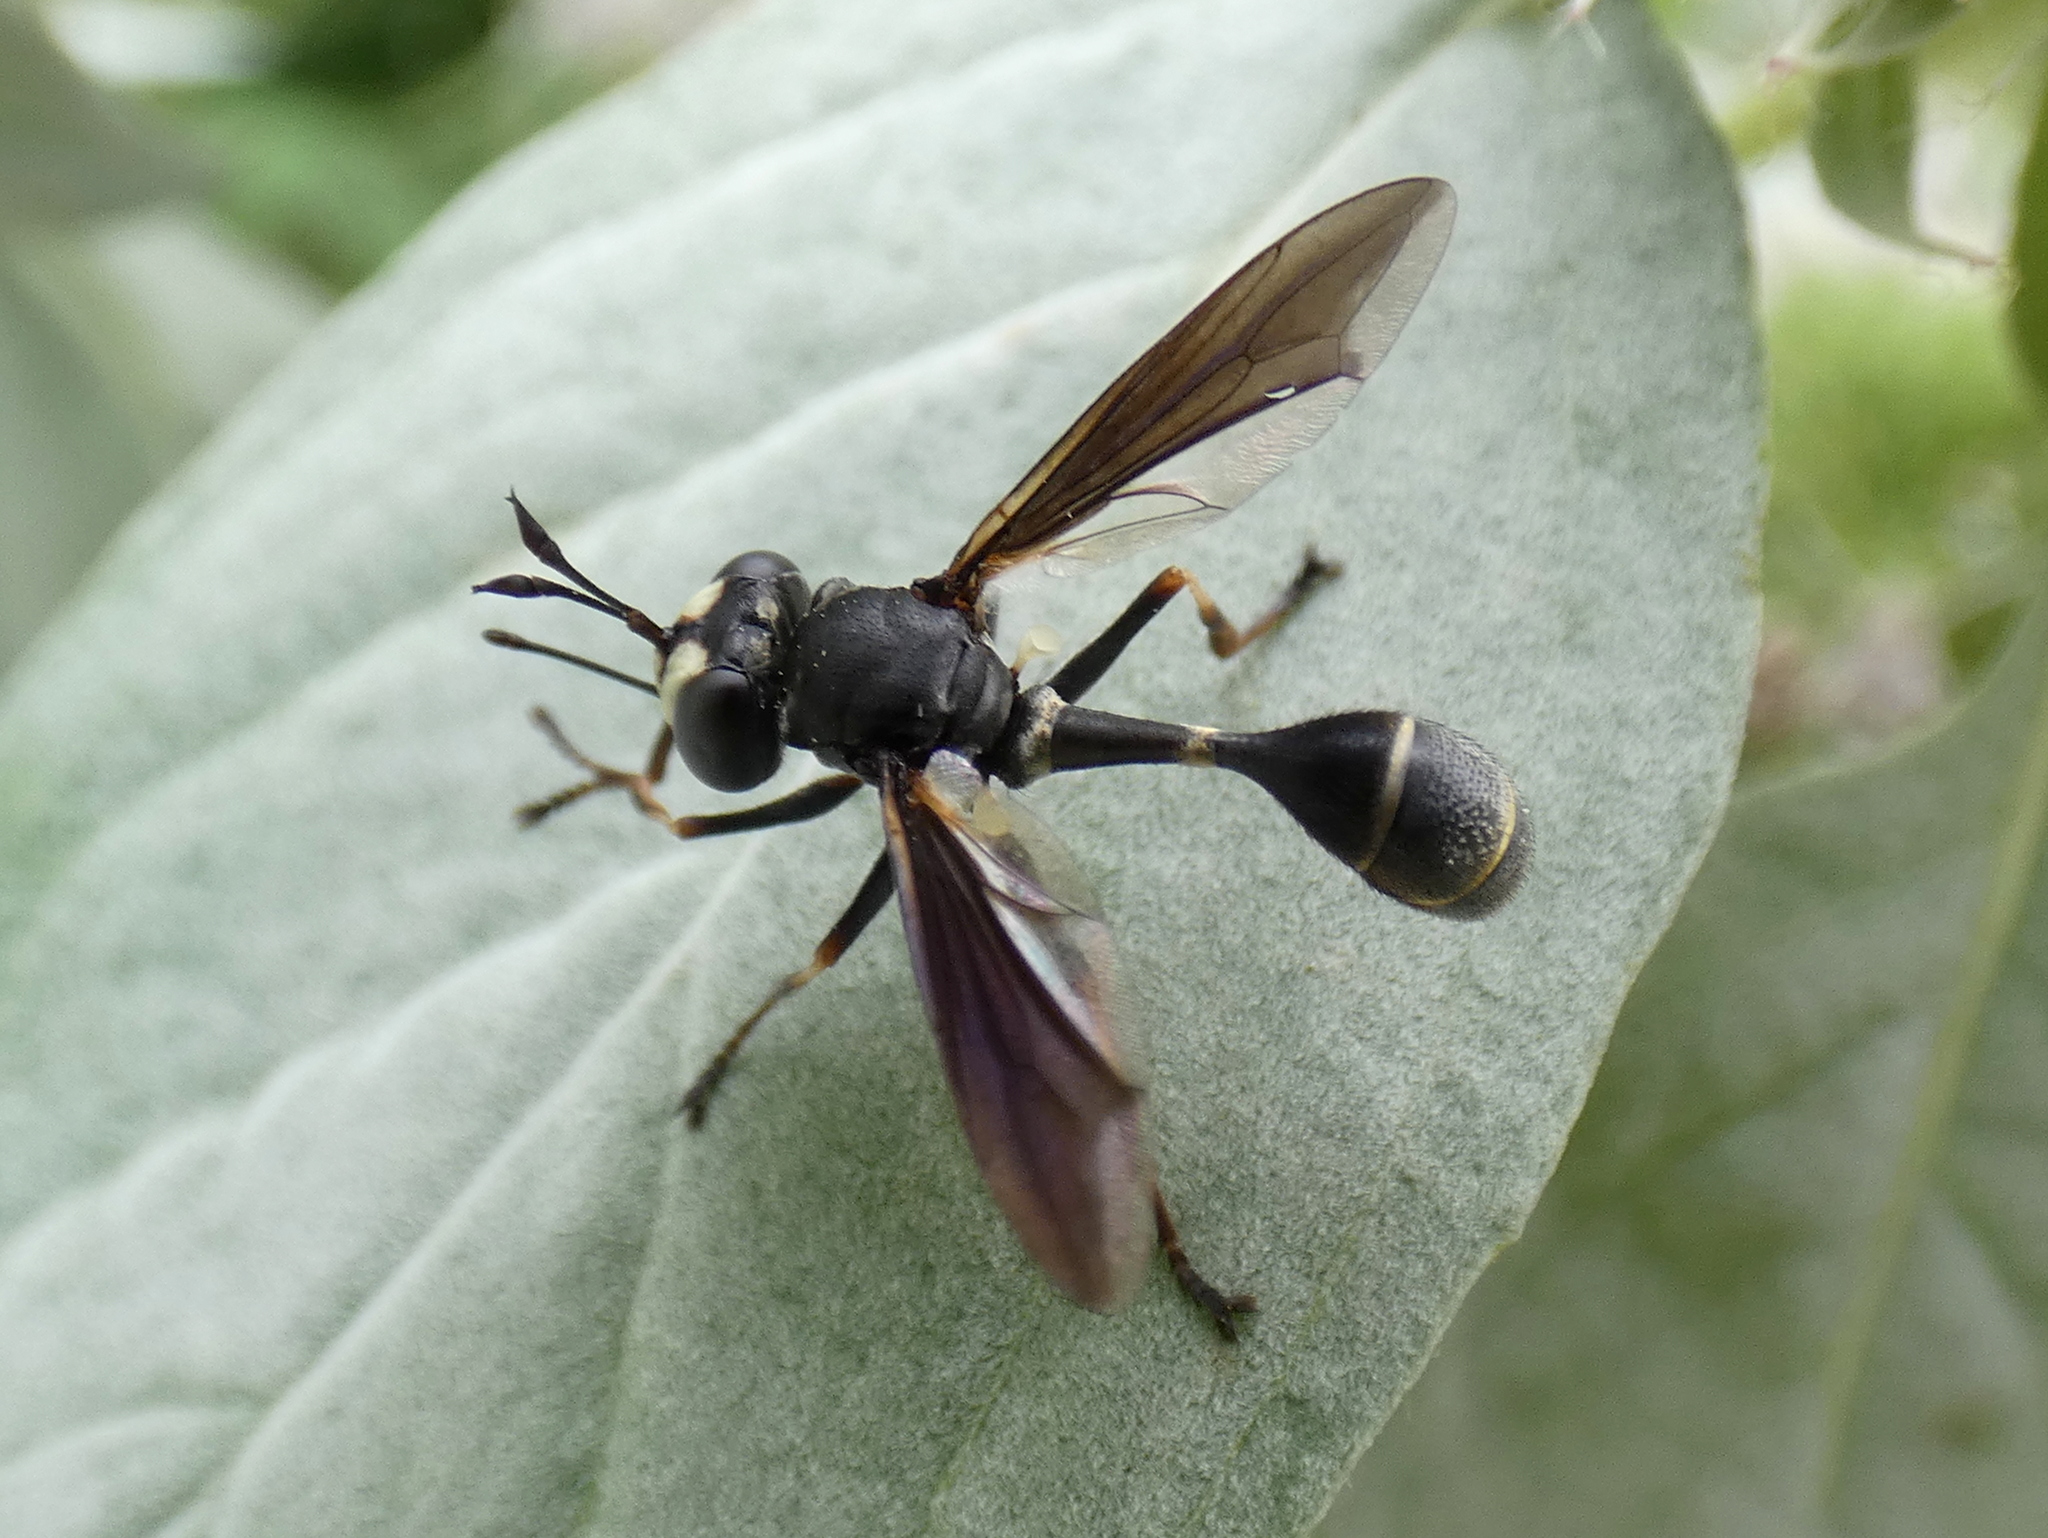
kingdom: Animalia
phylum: Arthropoda
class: Insecta
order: Diptera
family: Conopidae
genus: Physocephala
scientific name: Physocephala tibialis
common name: Common eastern physocephala
